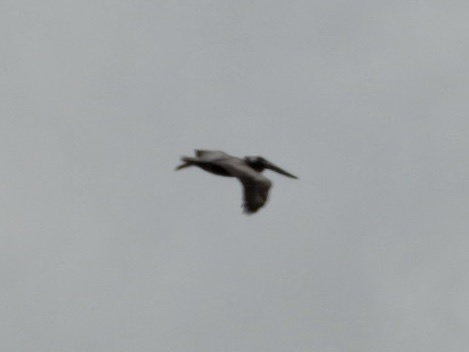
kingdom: Animalia
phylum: Chordata
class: Aves
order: Pelecaniformes
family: Pelecanidae
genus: Pelecanus
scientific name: Pelecanus occidentalis
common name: Brown pelican
